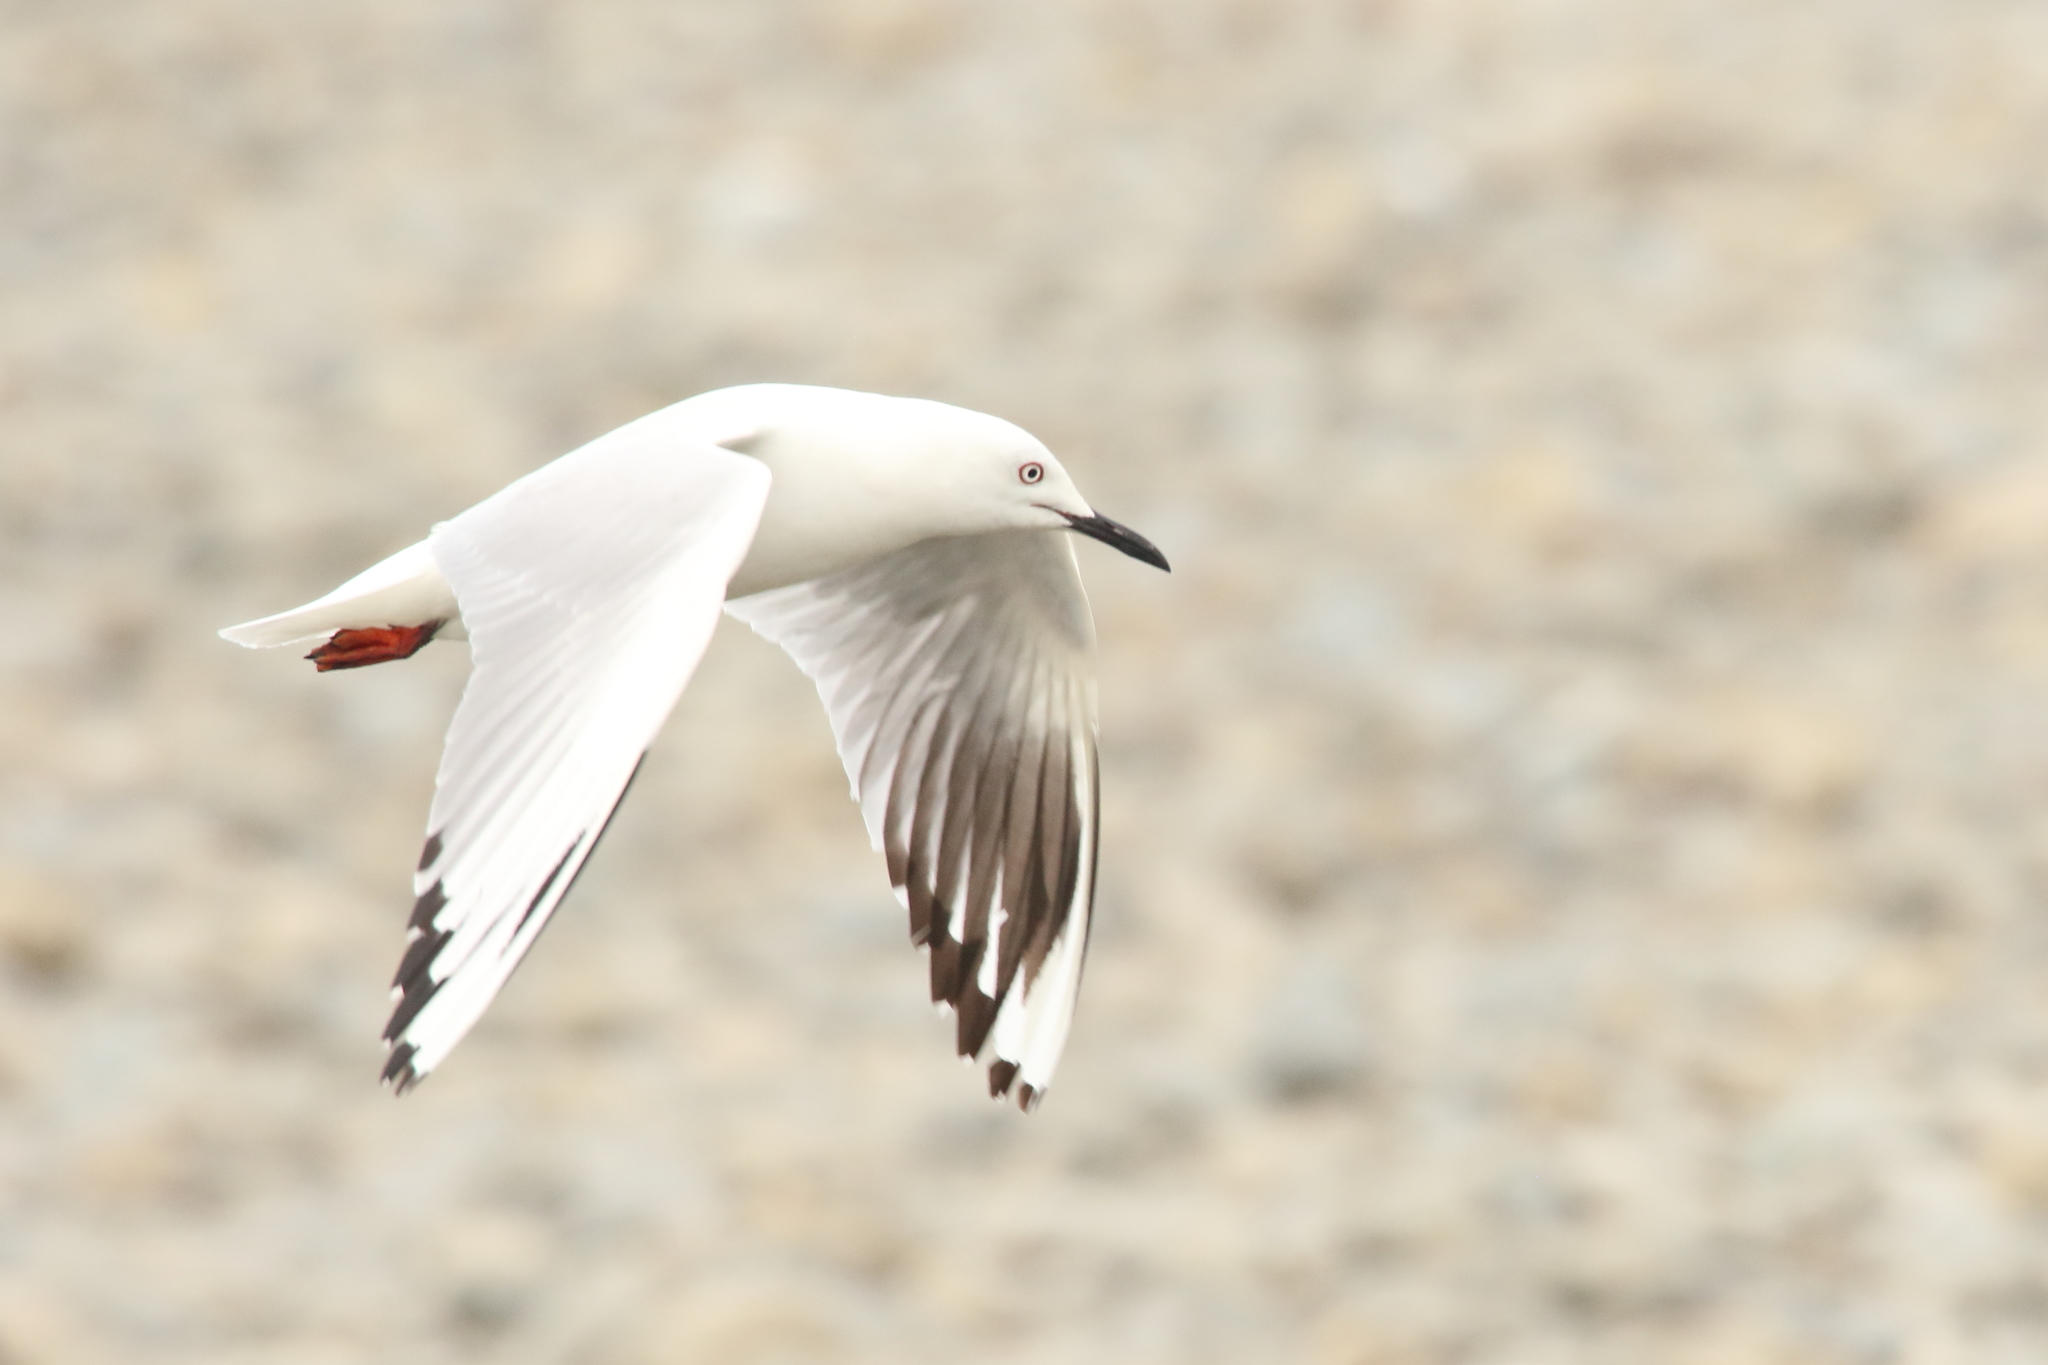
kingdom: Animalia
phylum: Chordata
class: Aves
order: Charadriiformes
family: Laridae
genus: Chroicocephalus
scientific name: Chroicocephalus bulleri
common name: Black-billed gull
